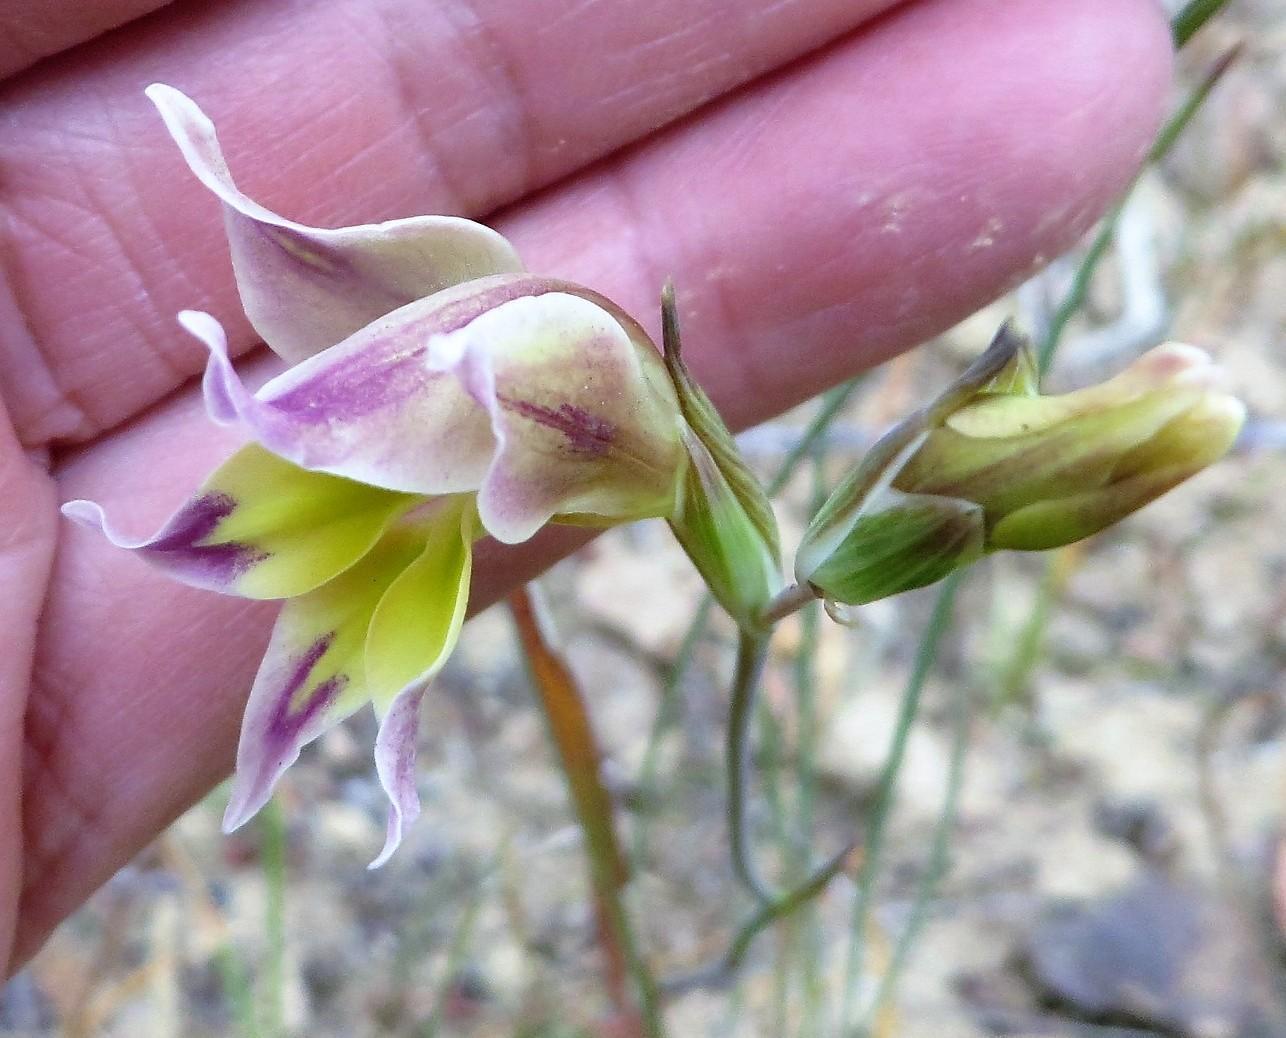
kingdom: Plantae
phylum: Tracheophyta
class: Liliopsida
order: Asparagales
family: Iridaceae
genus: Gladiolus
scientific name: Gladiolus venustus
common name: Purple kalkoentjie
